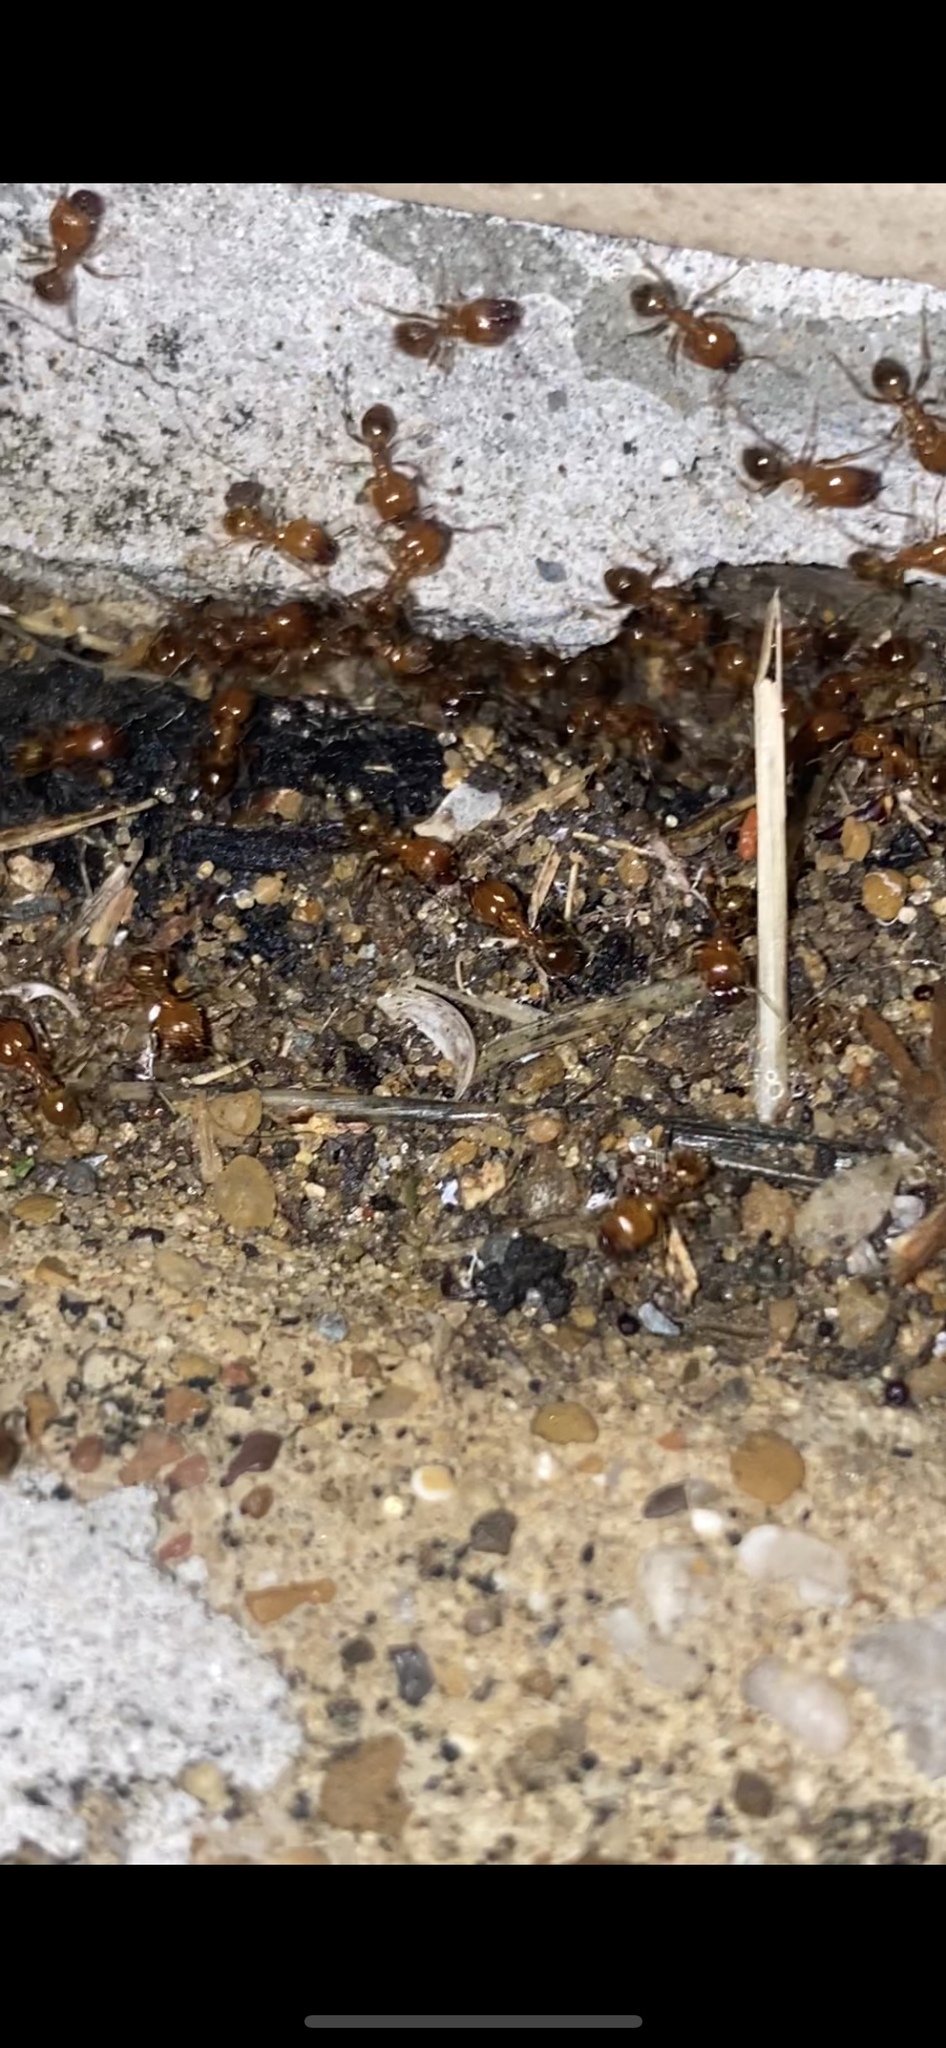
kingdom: Animalia
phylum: Arthropoda
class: Insecta
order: Hymenoptera
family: Formicidae
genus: Pheidole
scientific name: Pheidole dentata
